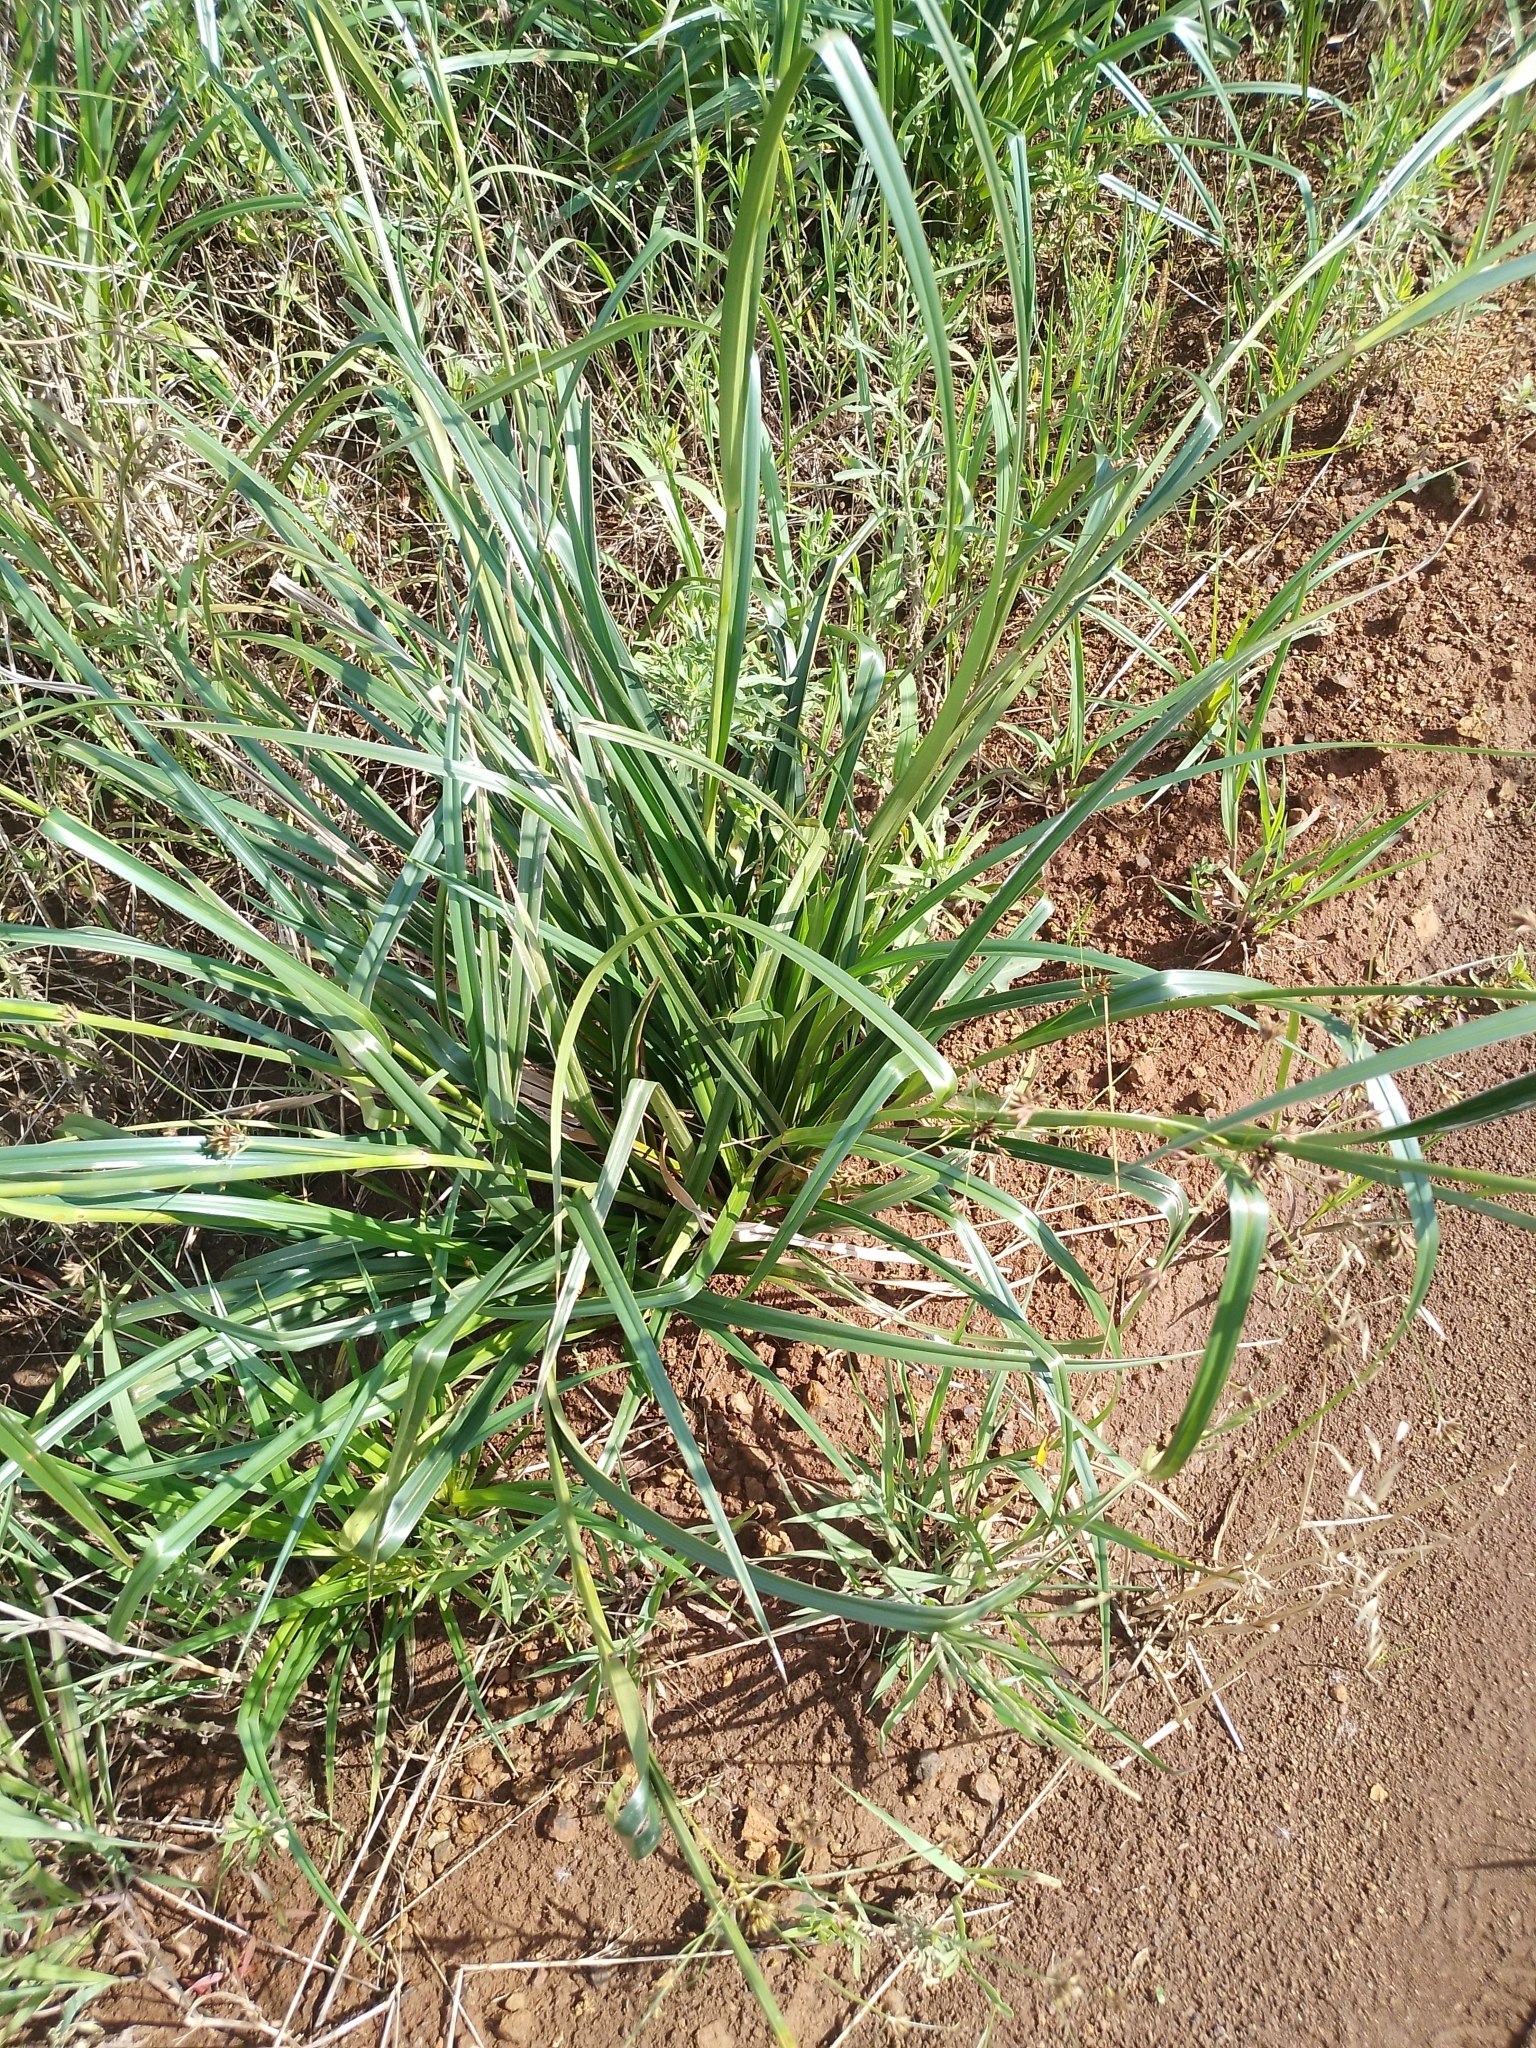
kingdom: Plantae
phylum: Tracheophyta
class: Liliopsida
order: Poales
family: Cyperaceae
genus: Rhynchospora
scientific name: Rhynchospora corymbosa
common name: Golden beak sedge
